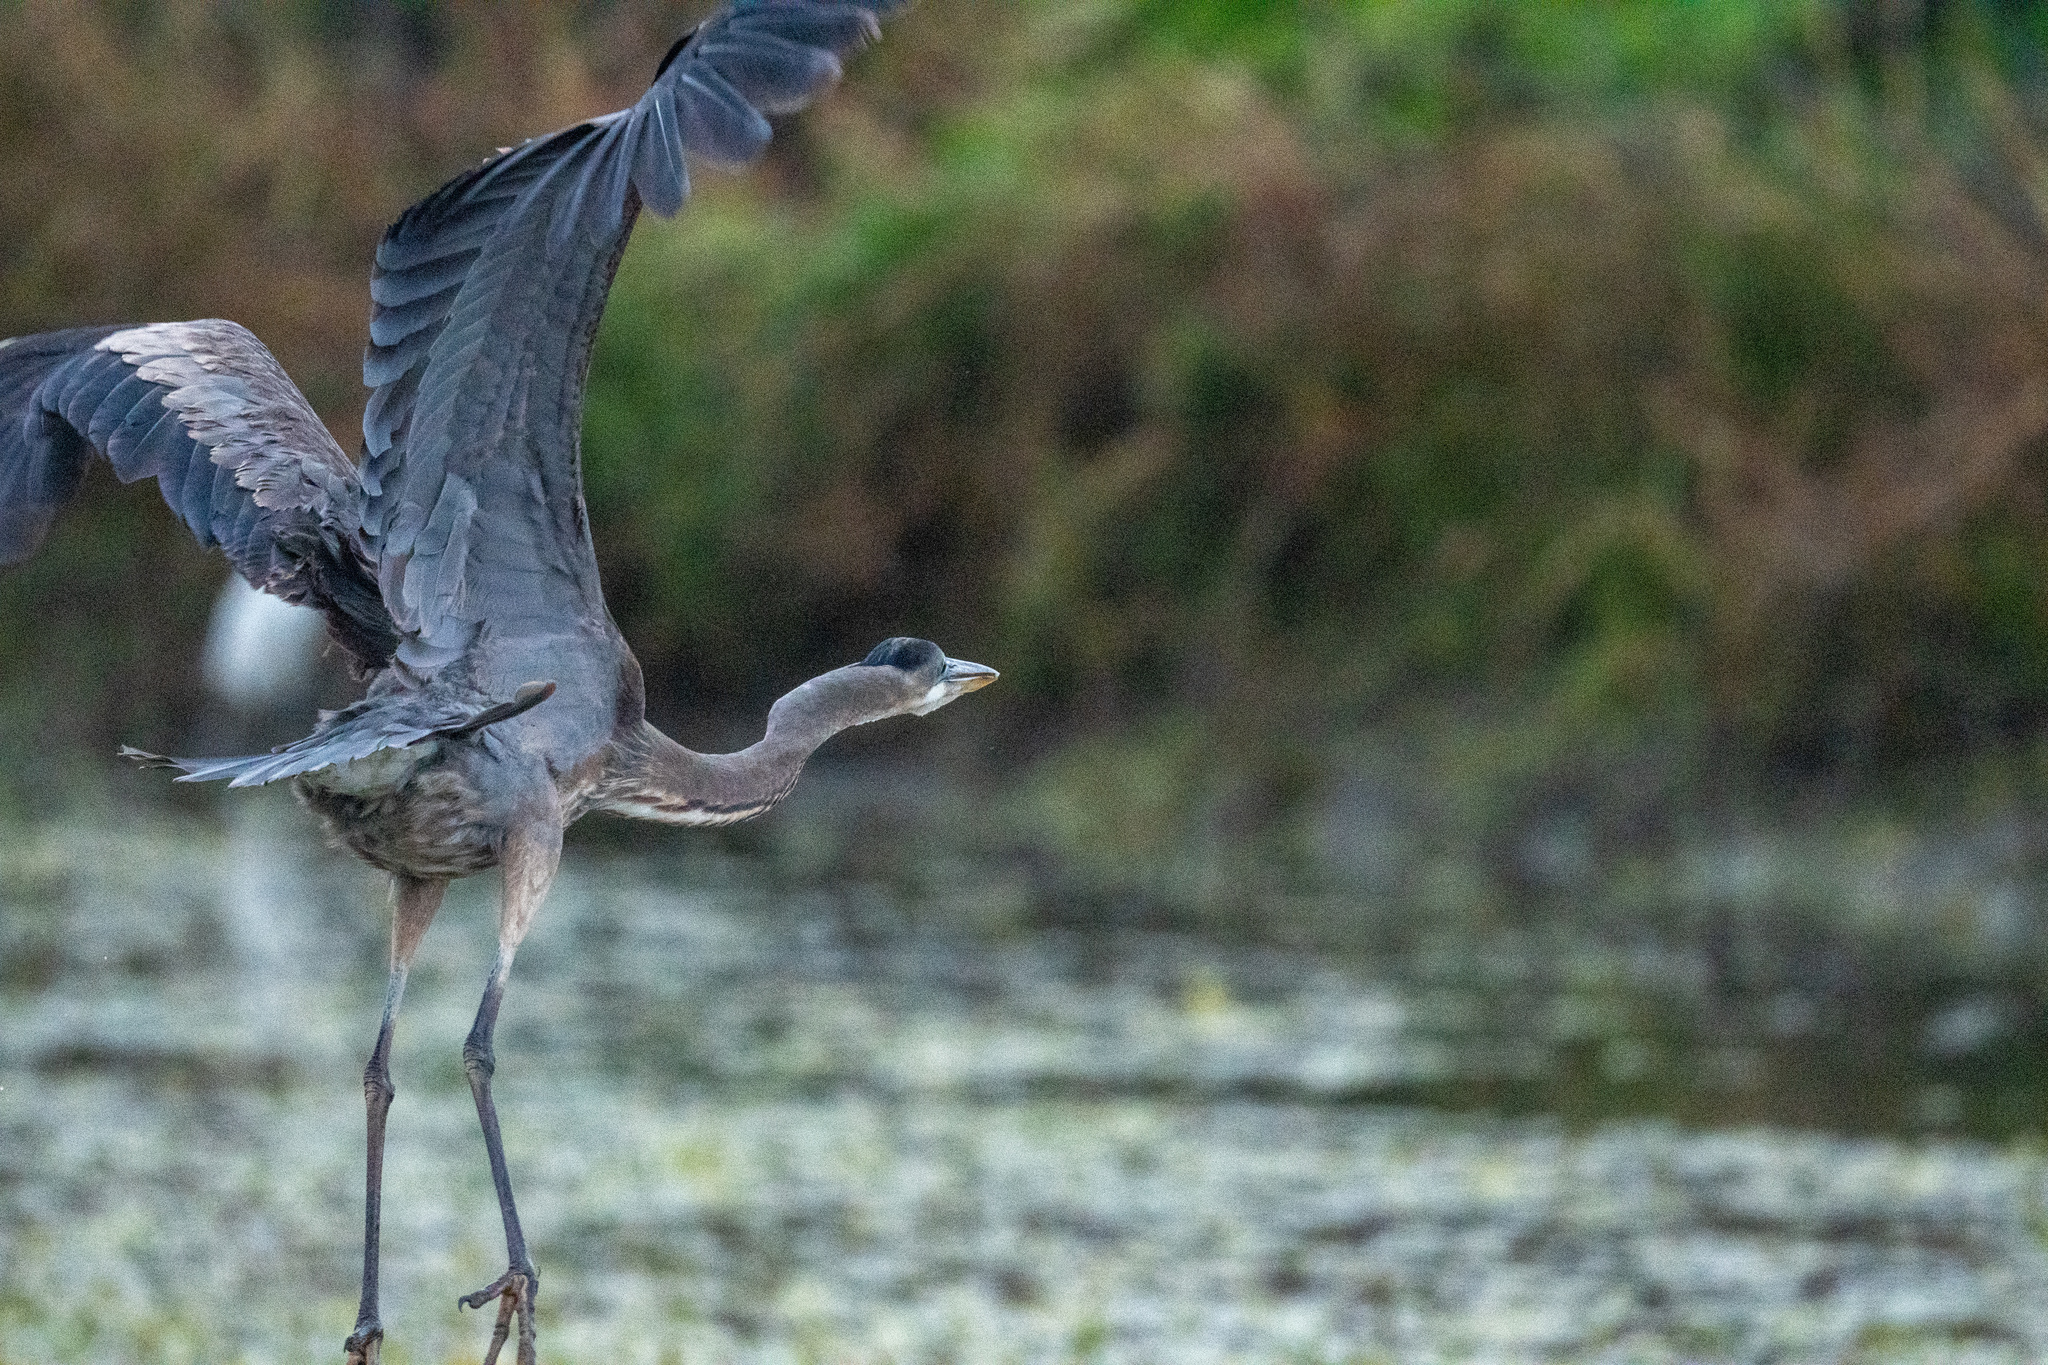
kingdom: Animalia
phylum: Chordata
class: Aves
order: Pelecaniformes
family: Ardeidae
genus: Ardea
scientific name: Ardea herodias
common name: Great blue heron
